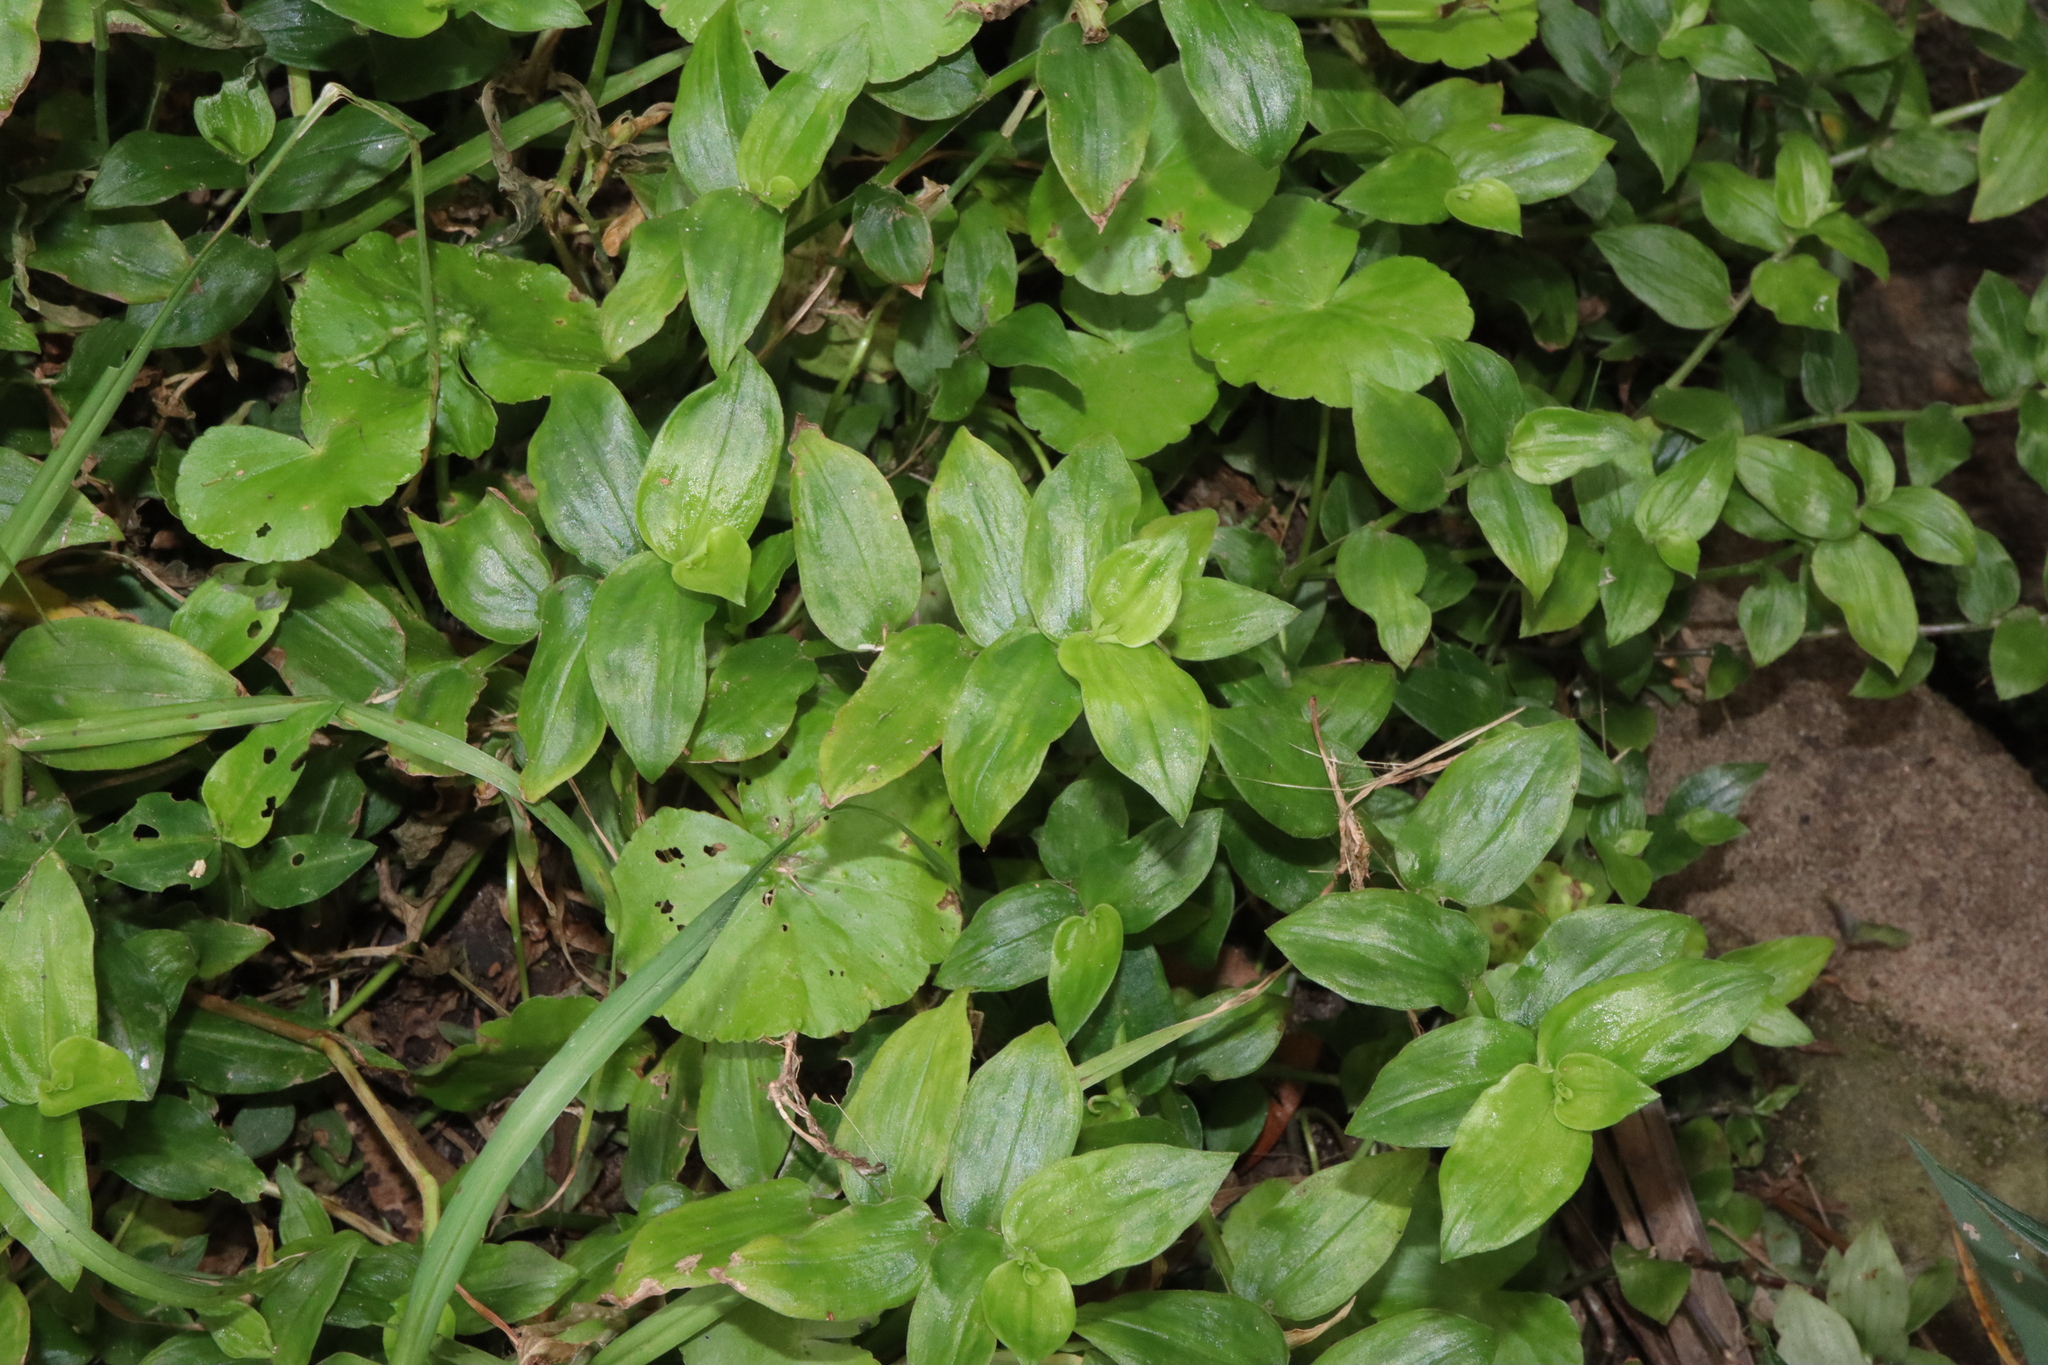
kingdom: Plantae
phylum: Tracheophyta
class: Liliopsida
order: Commelinales
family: Commelinaceae
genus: Tradescantia
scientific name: Tradescantia fluminensis
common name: Wandering-jew
